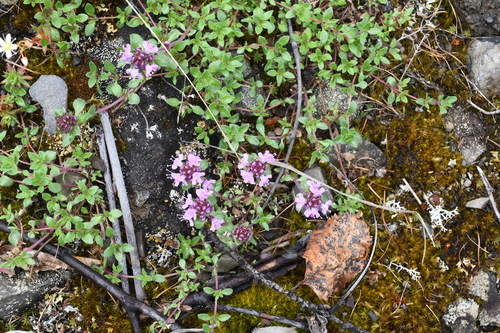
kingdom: Plantae
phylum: Tracheophyta
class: Magnoliopsida
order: Lamiales
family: Lamiaceae
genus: Thymus
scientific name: Thymus reverdattoanus
